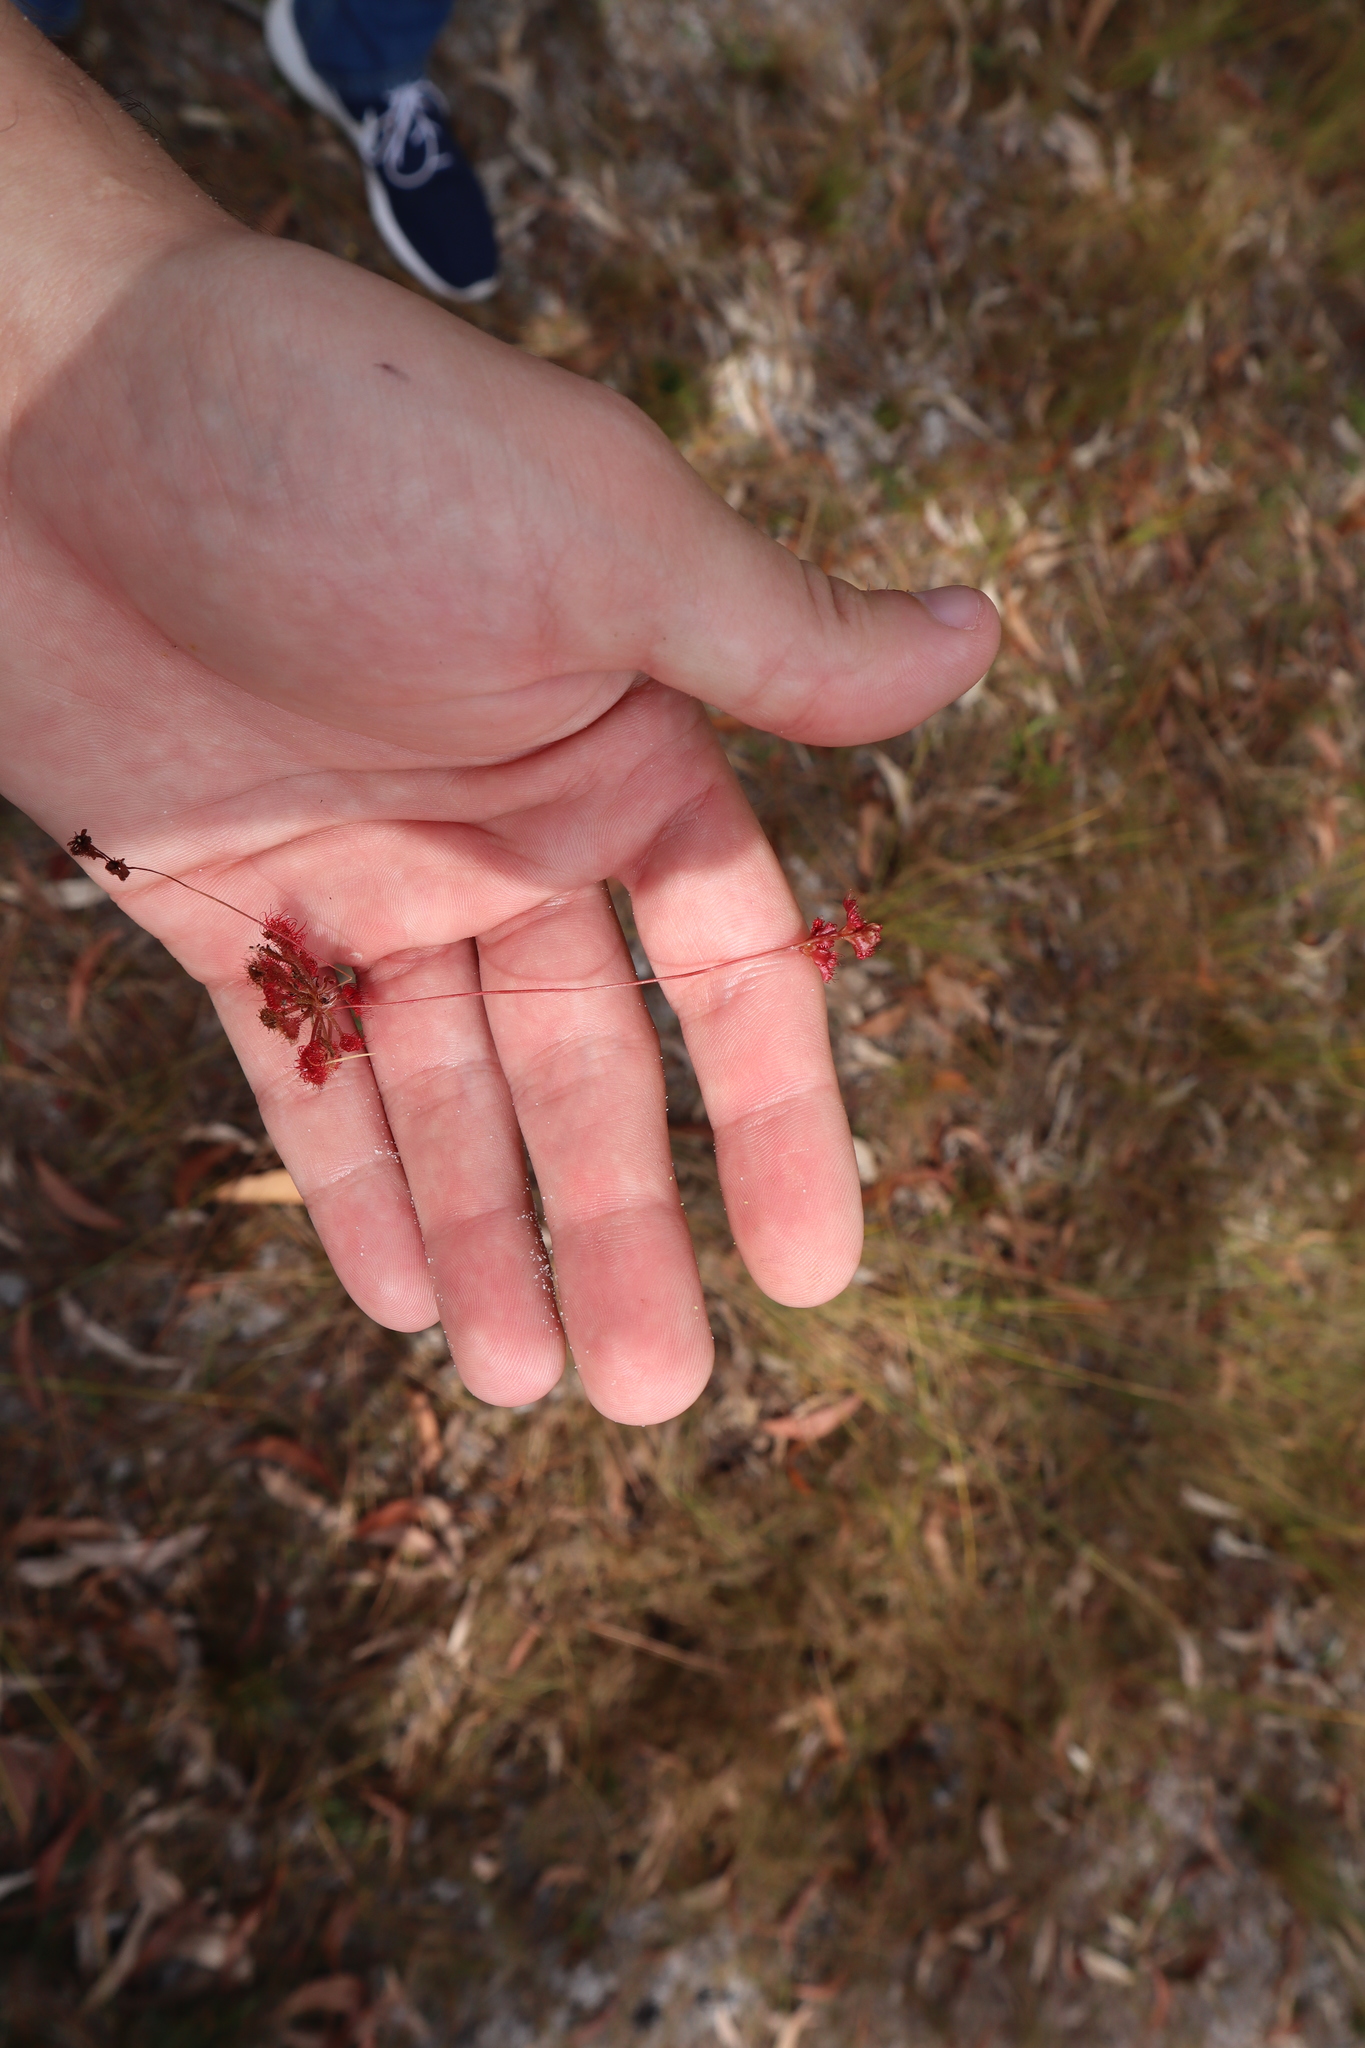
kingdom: Plantae
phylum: Tracheophyta
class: Magnoliopsida
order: Caryophyllales
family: Droseraceae
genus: Drosera
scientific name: Drosera capillaris
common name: Pink sundew
